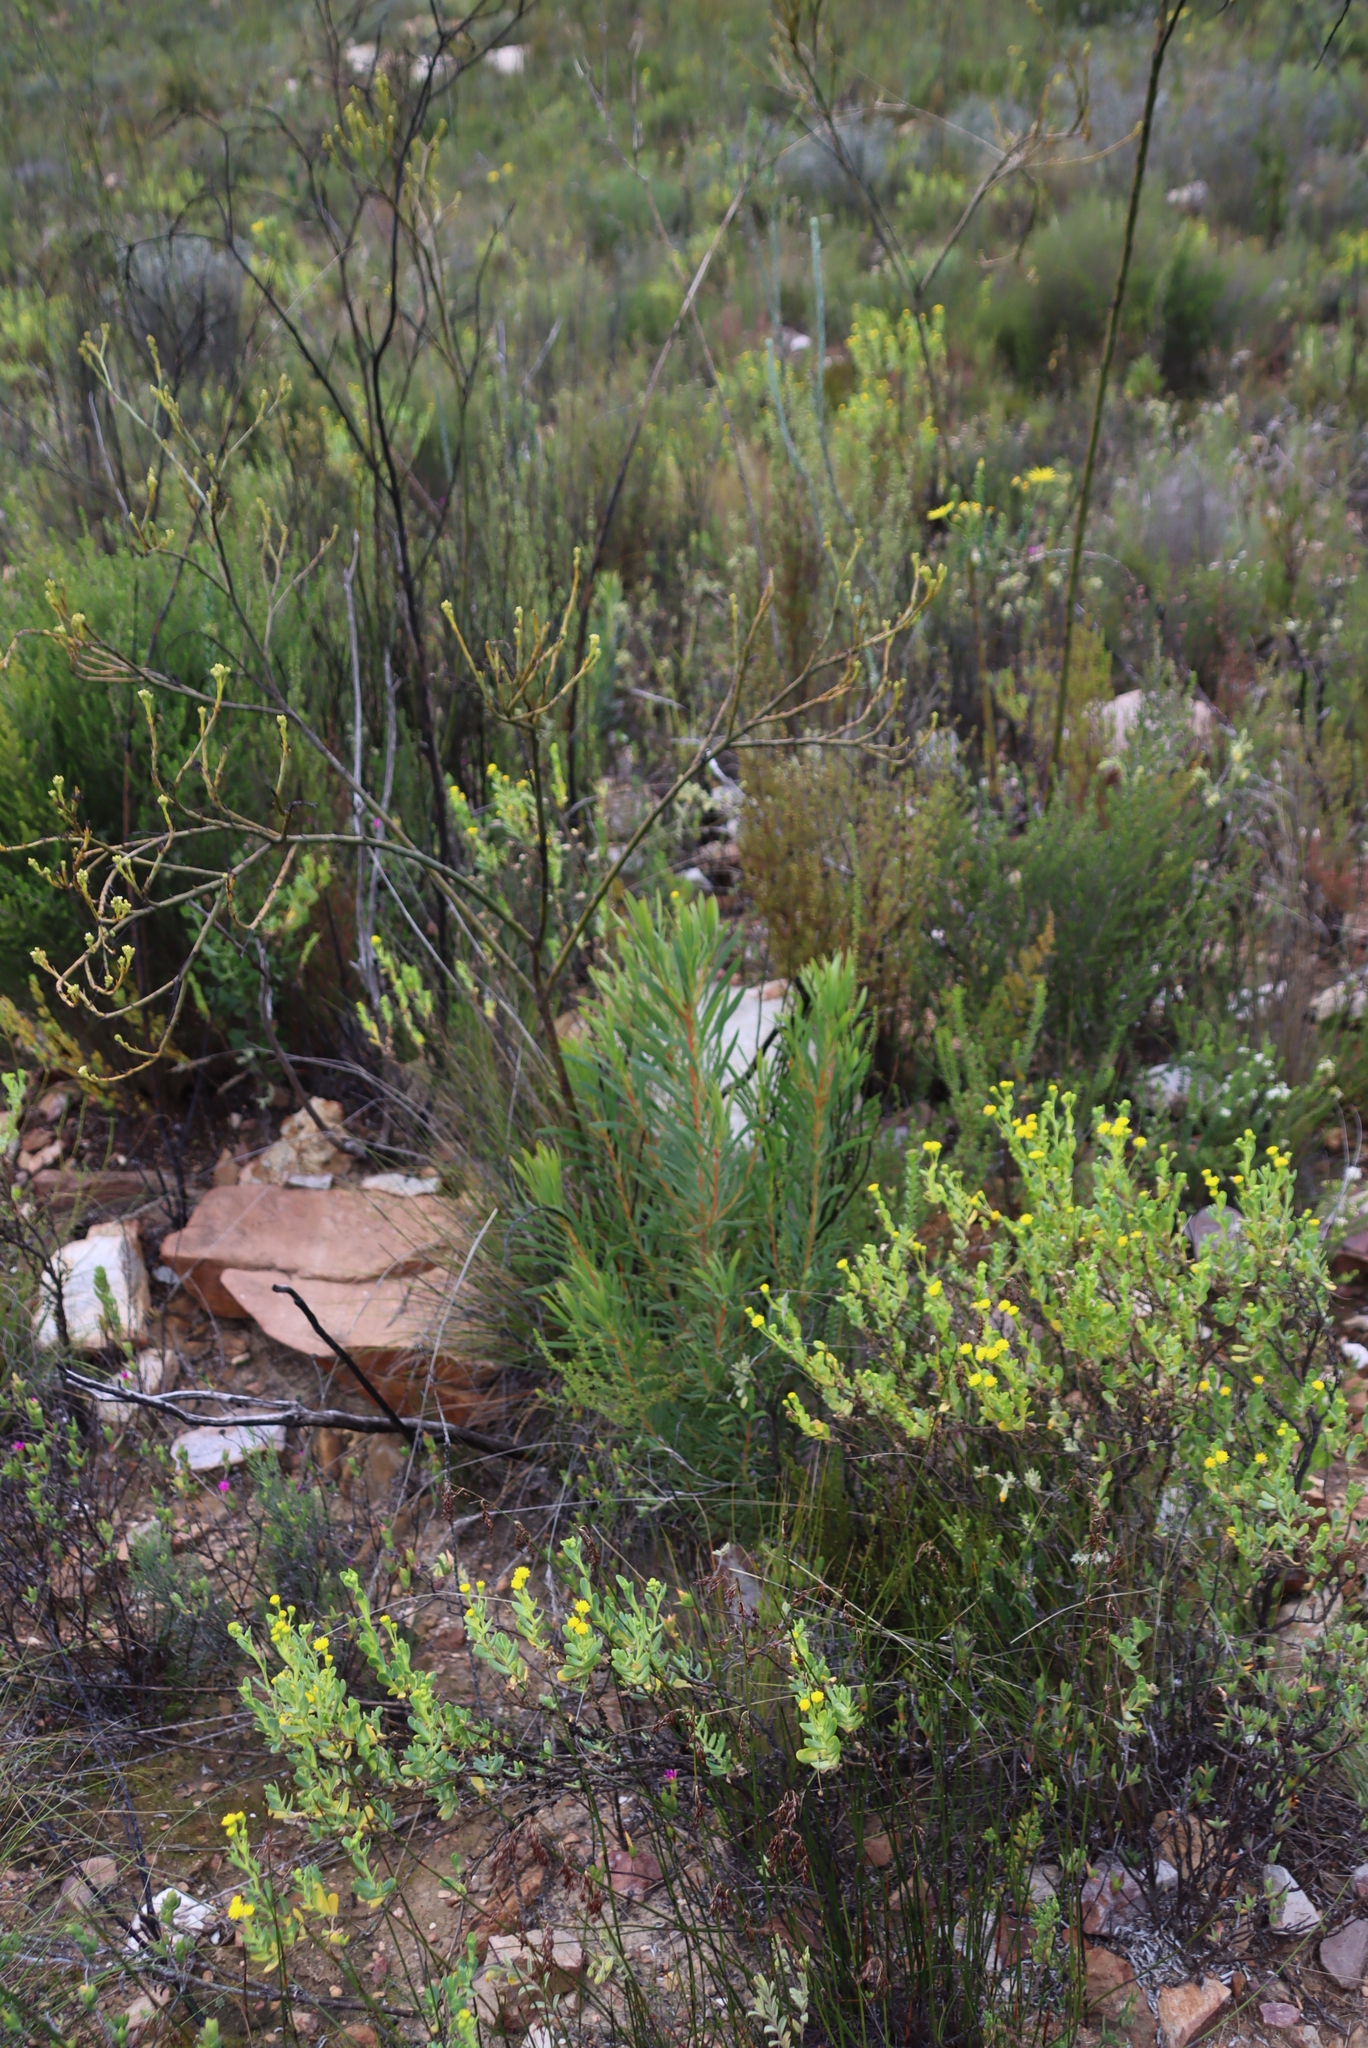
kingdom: Plantae
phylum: Tracheophyta
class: Magnoliopsida
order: Proteales
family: Proteaceae
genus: Protea
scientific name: Protea repens
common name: Sugarbush
